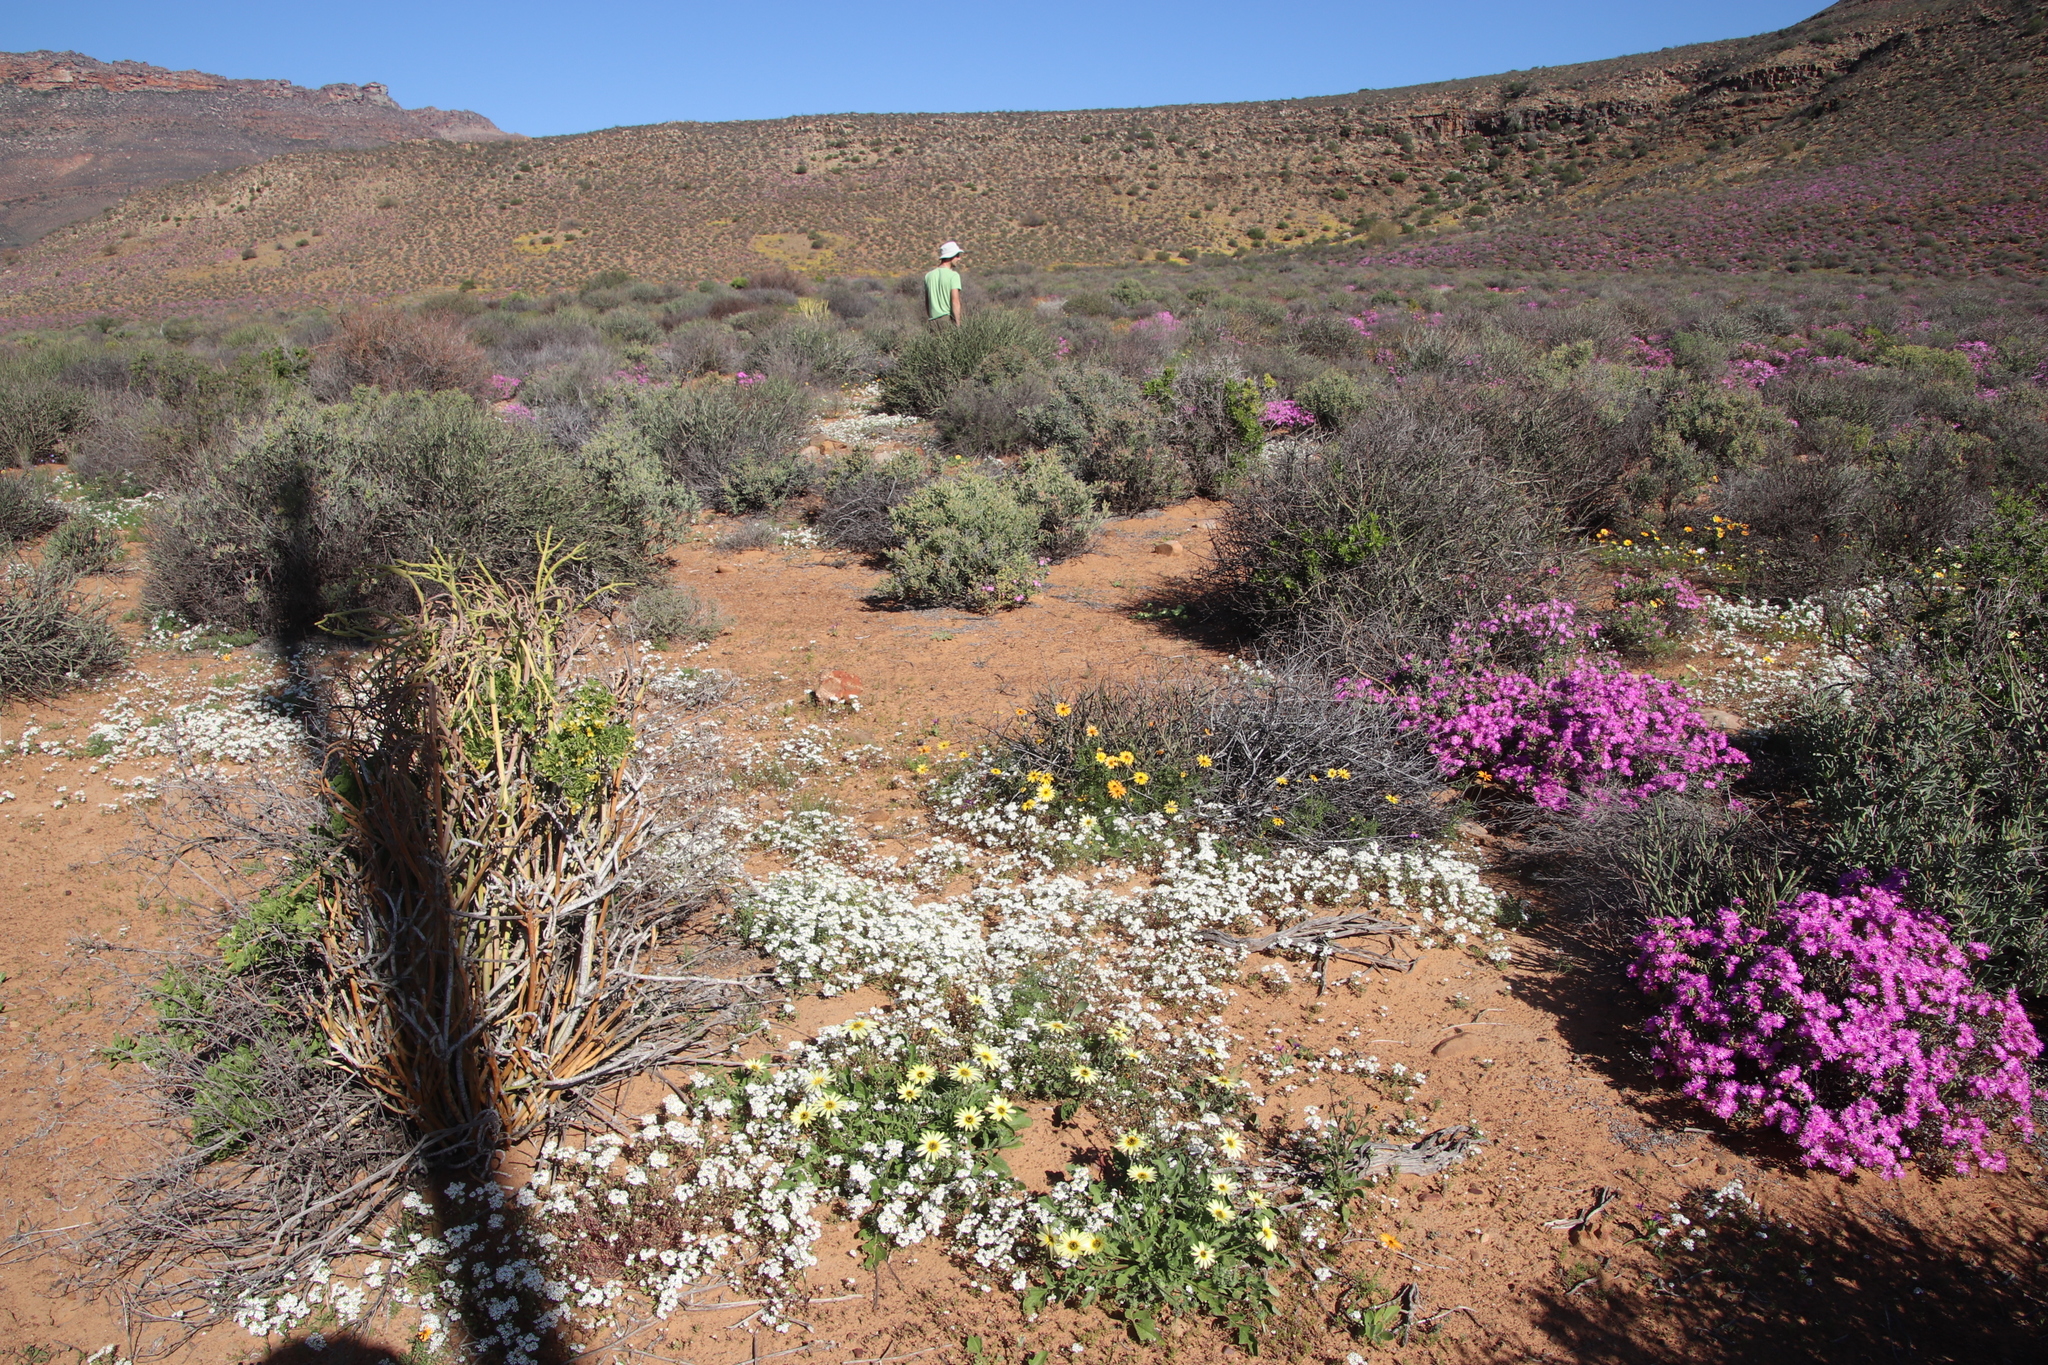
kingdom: Plantae
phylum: Tracheophyta
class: Magnoliopsida
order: Lamiales
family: Scrophulariaceae
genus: Zaluzianskya
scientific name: Zaluzianskya affinis
